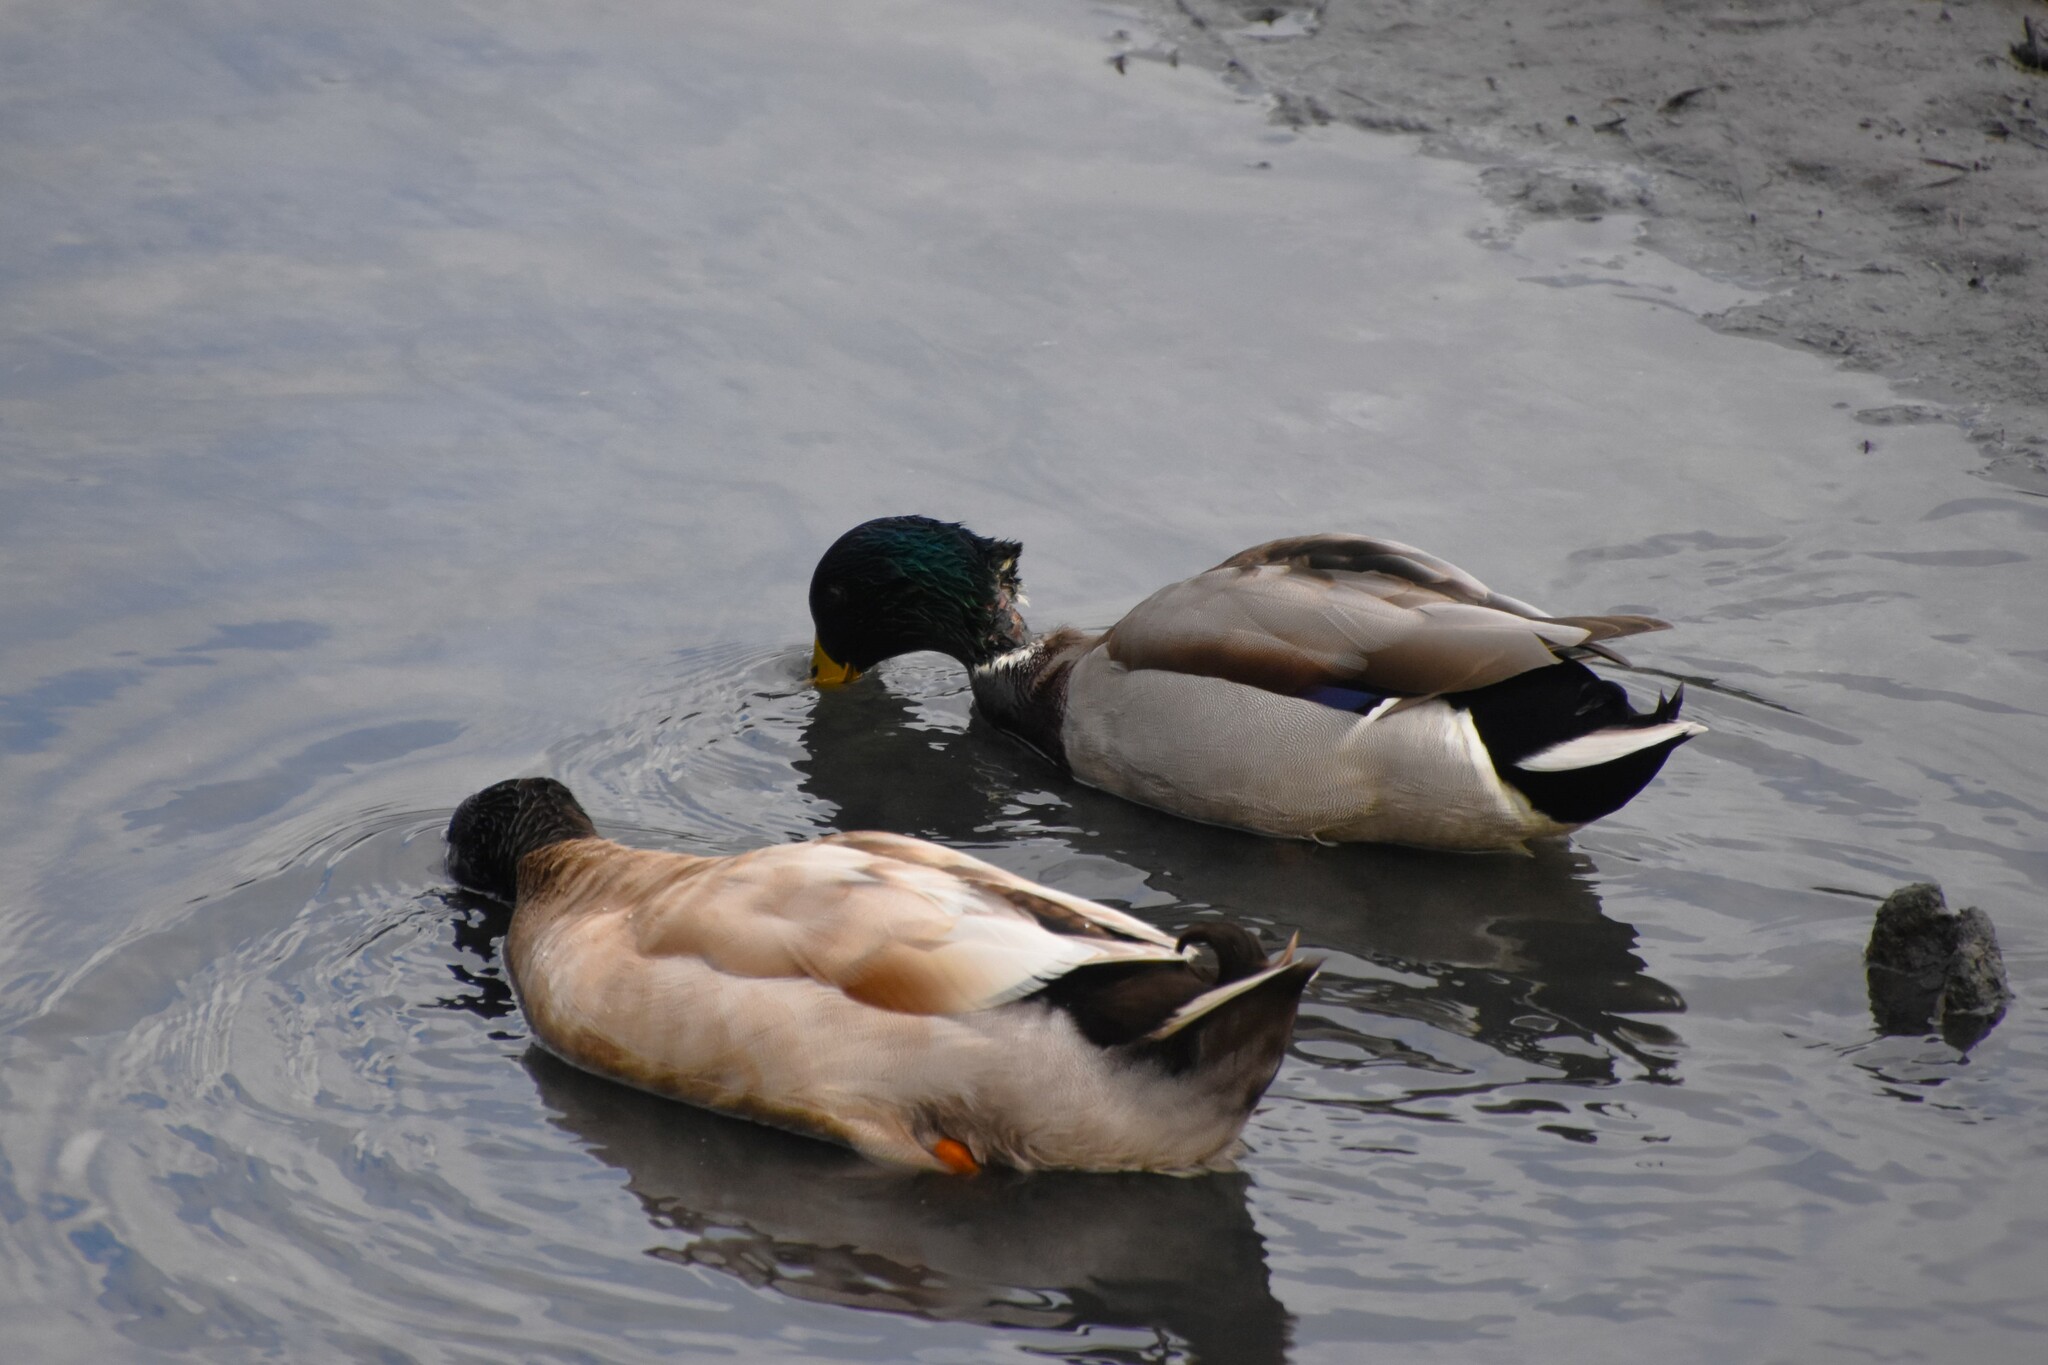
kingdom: Animalia
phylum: Chordata
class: Aves
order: Anseriformes
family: Anatidae
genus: Anas
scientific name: Anas platyrhynchos
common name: Mallard
